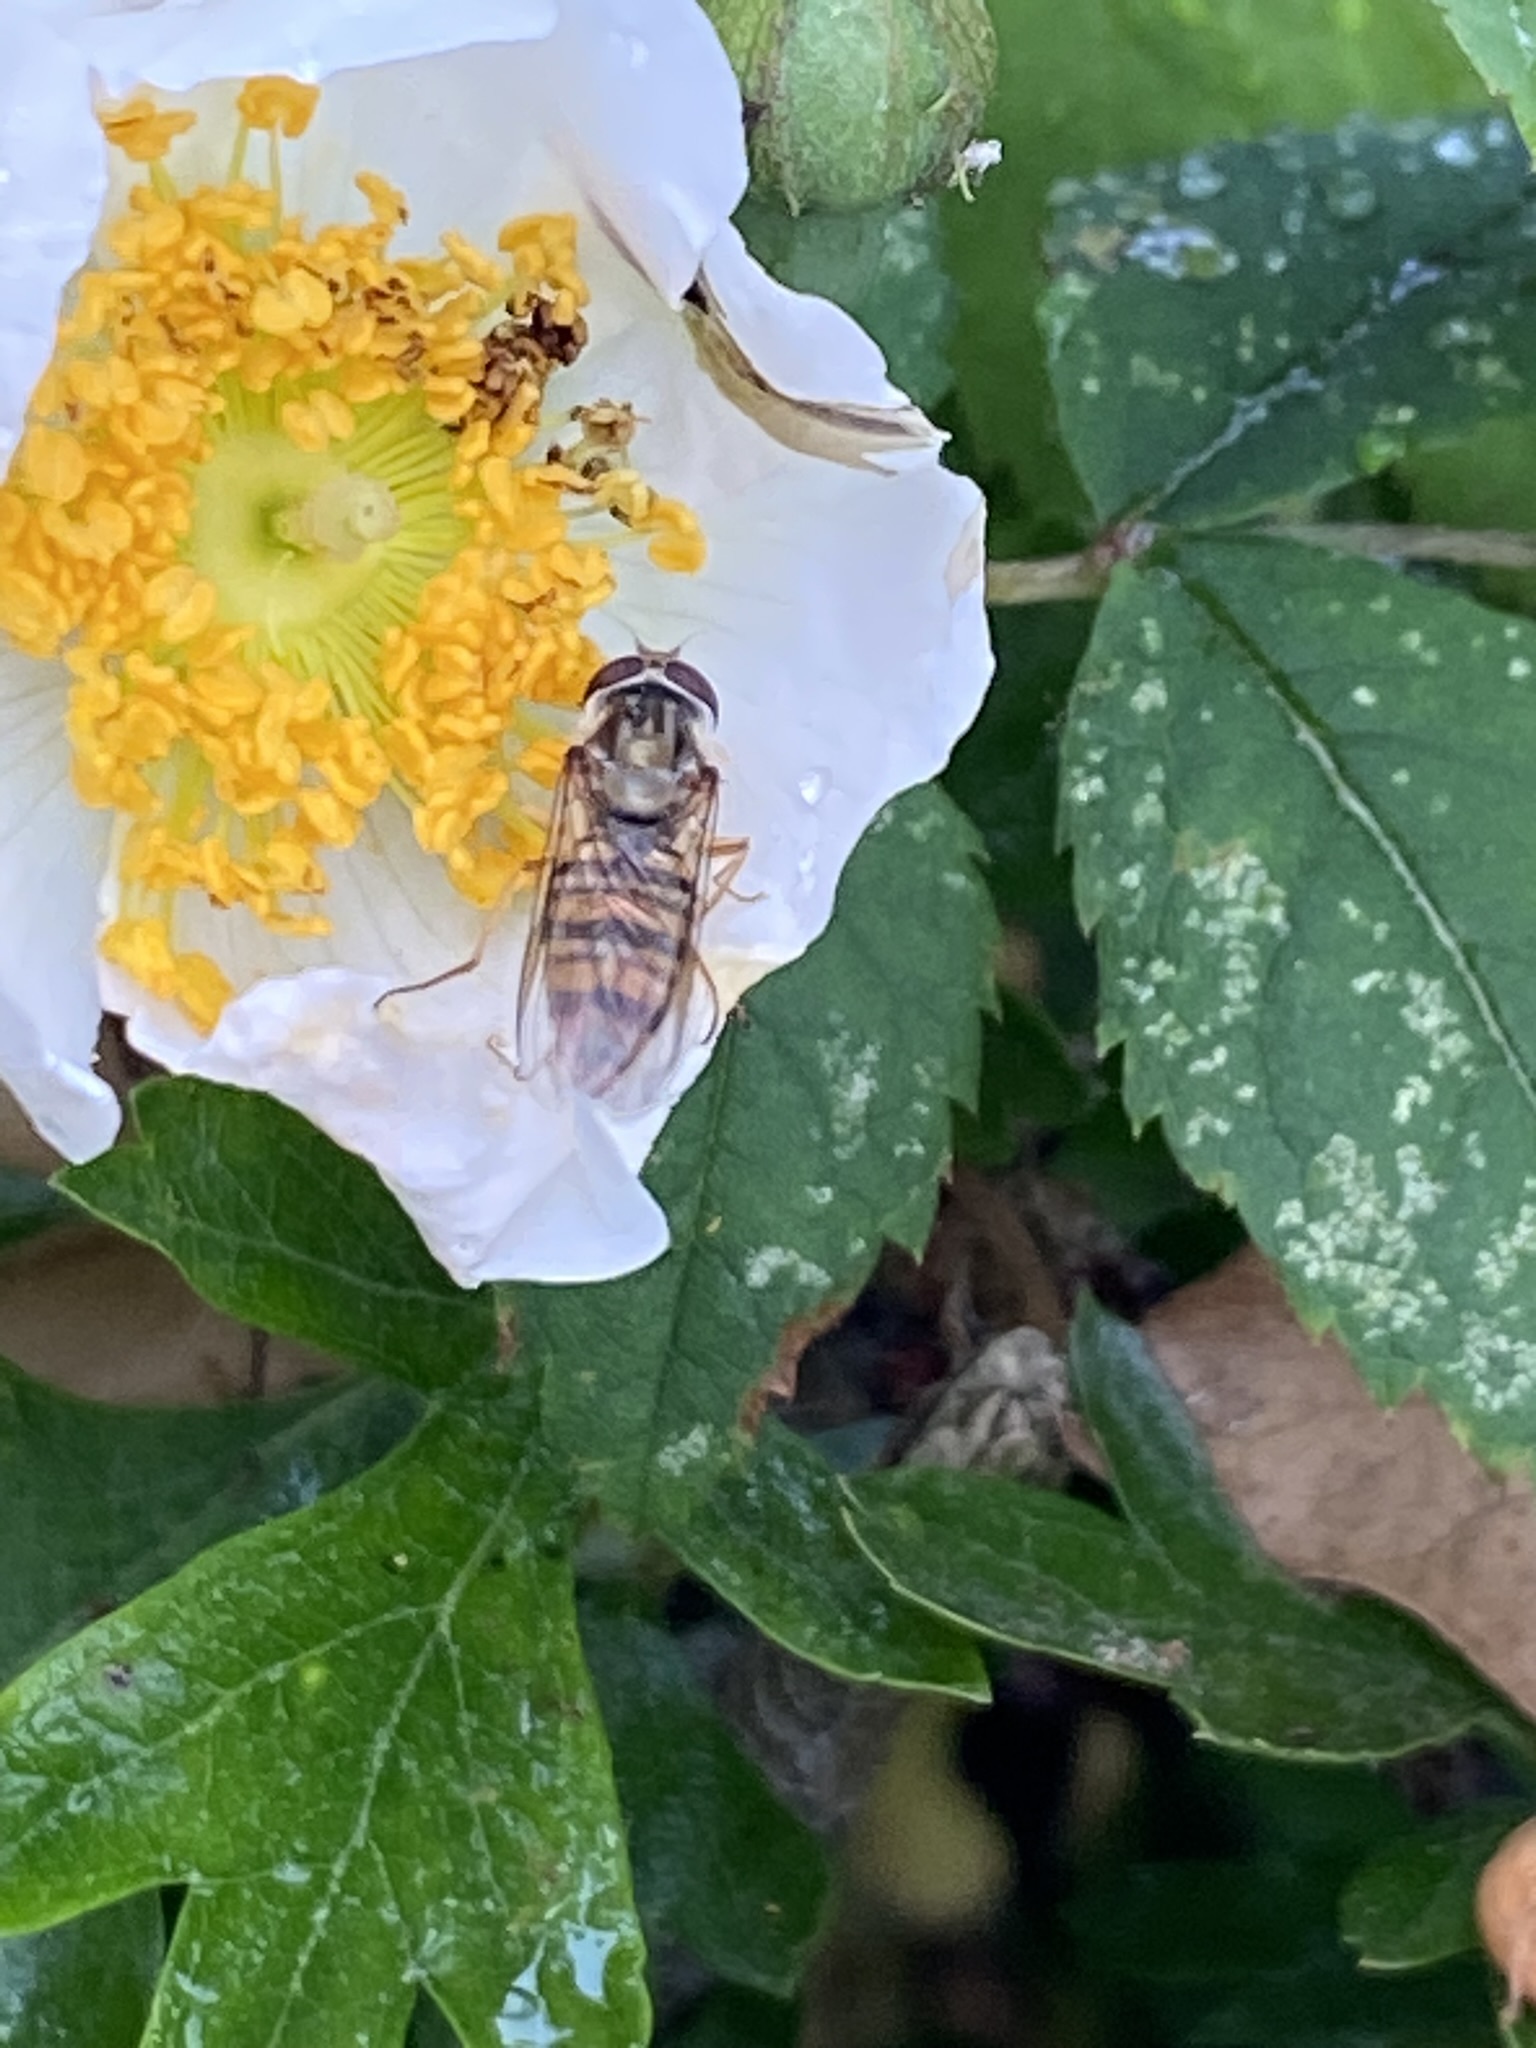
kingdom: Animalia
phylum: Arthropoda
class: Insecta
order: Diptera
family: Syrphidae
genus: Episyrphus
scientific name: Episyrphus balteatus
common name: Marmalade hoverfly
